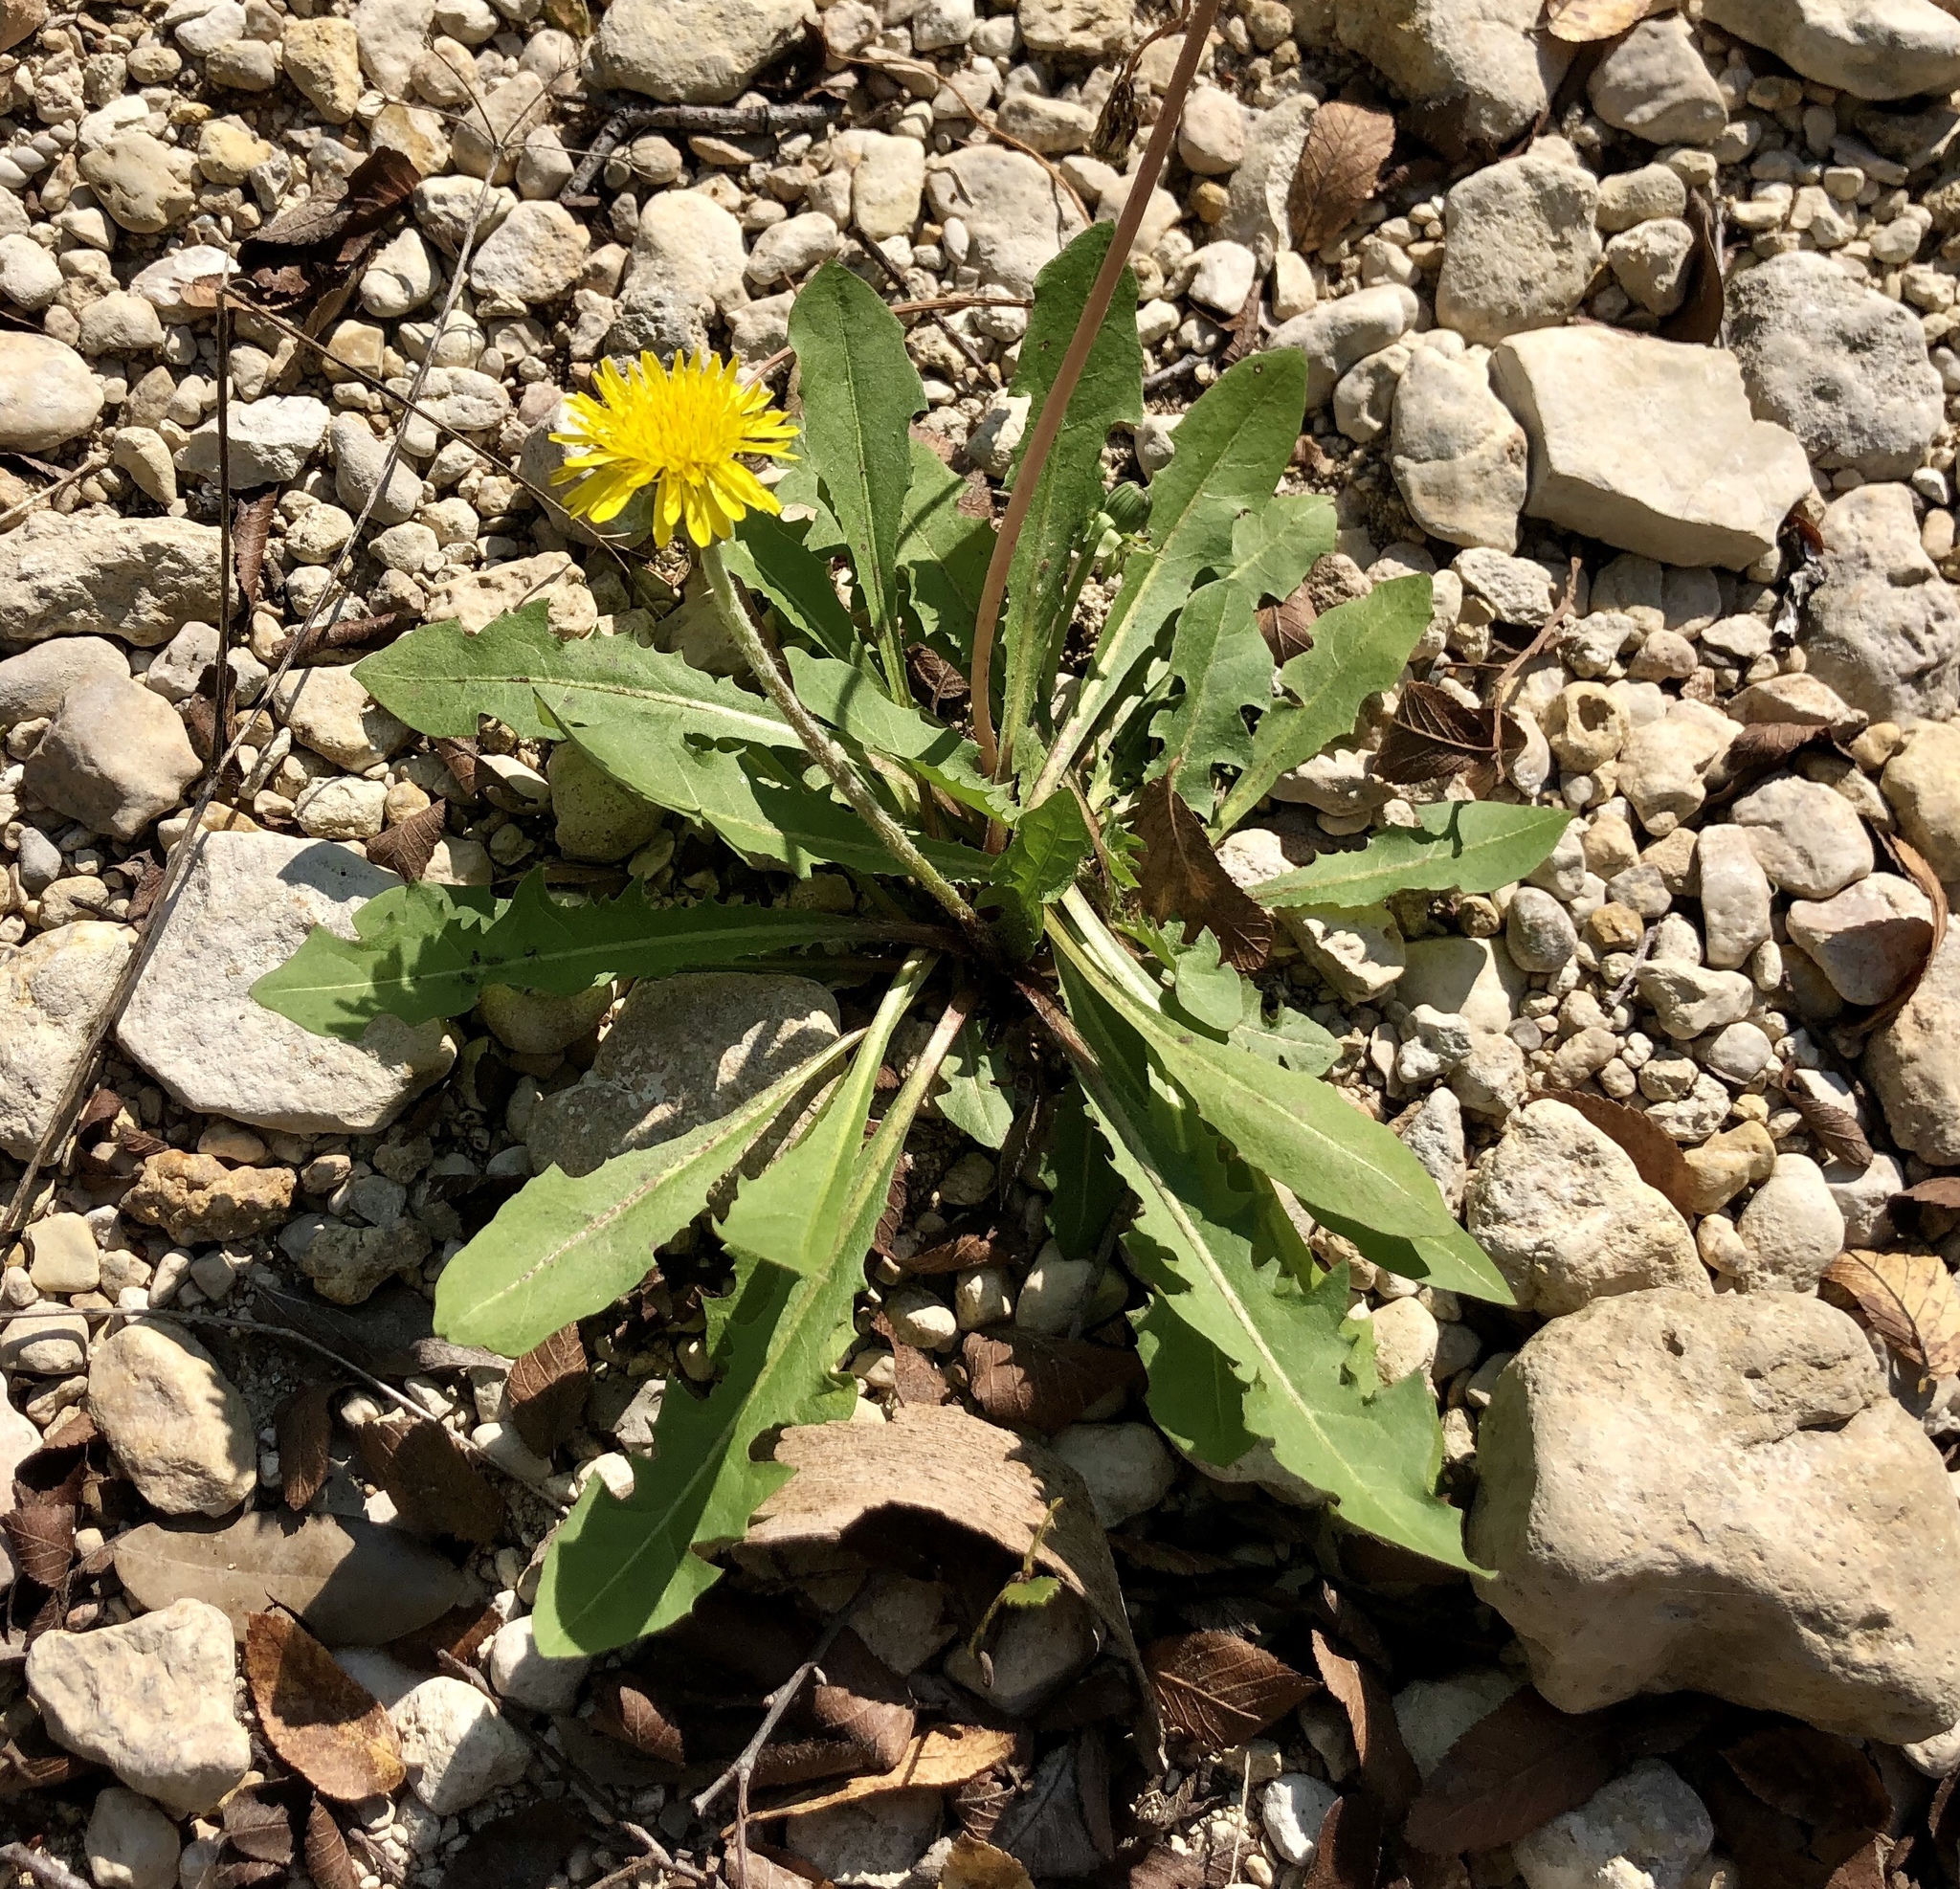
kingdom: Plantae
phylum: Tracheophyta
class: Magnoliopsida
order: Asterales
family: Asteraceae
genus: Taraxacum
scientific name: Taraxacum officinale
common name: Common dandelion
